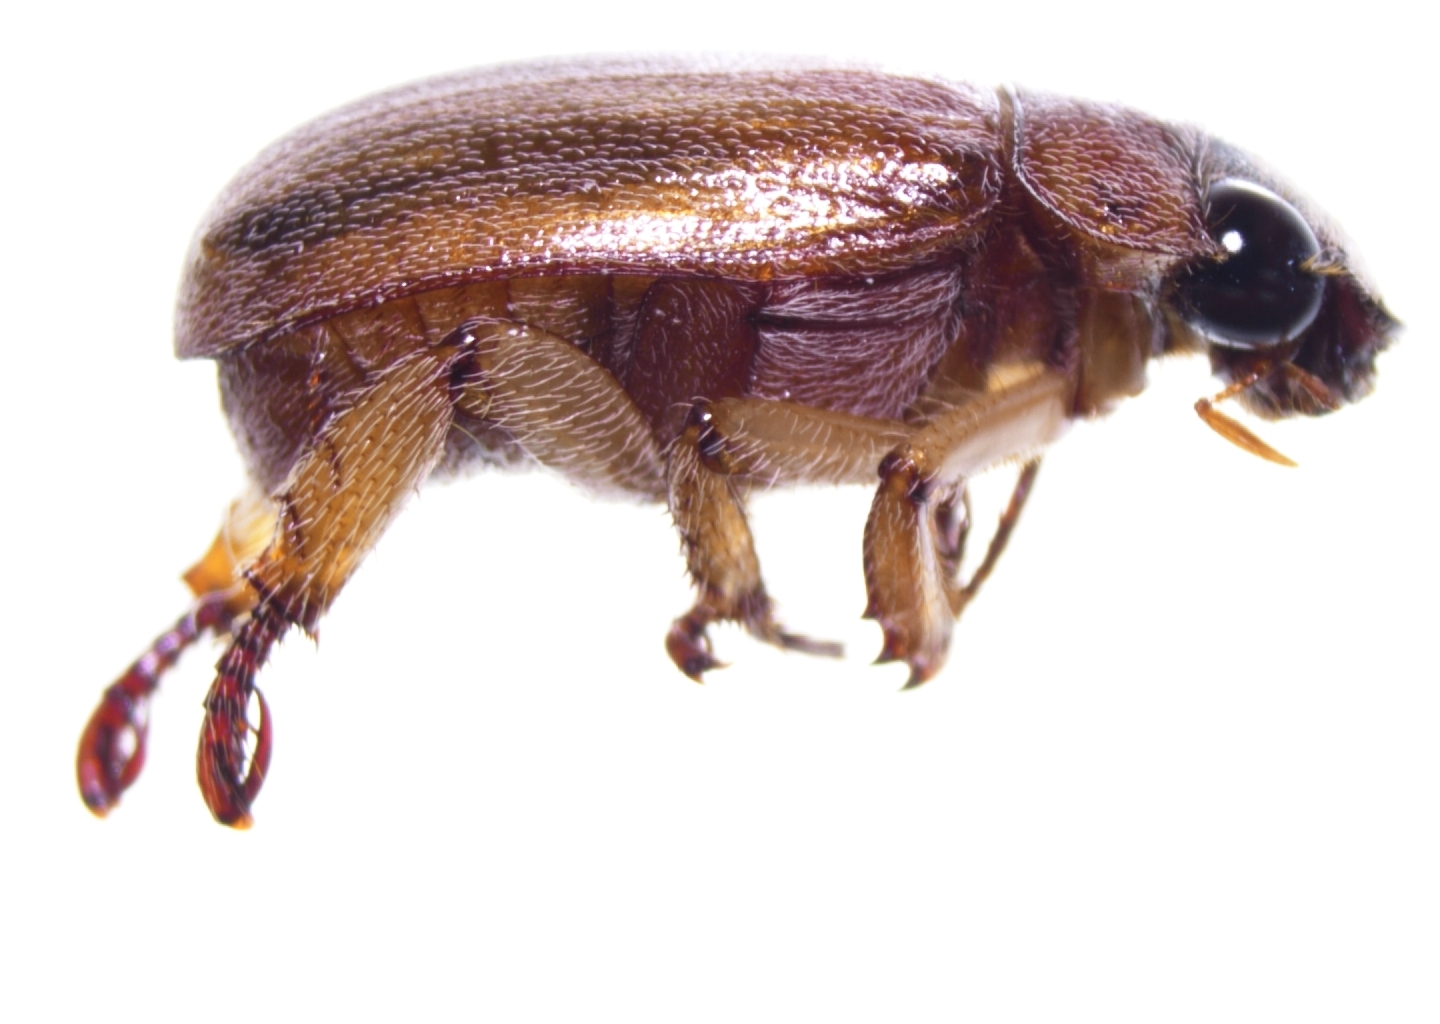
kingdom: Animalia
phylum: Arthropoda
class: Insecta
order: Coleoptera
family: Scarabaeidae
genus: Adoretus
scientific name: Adoretus sinicus
